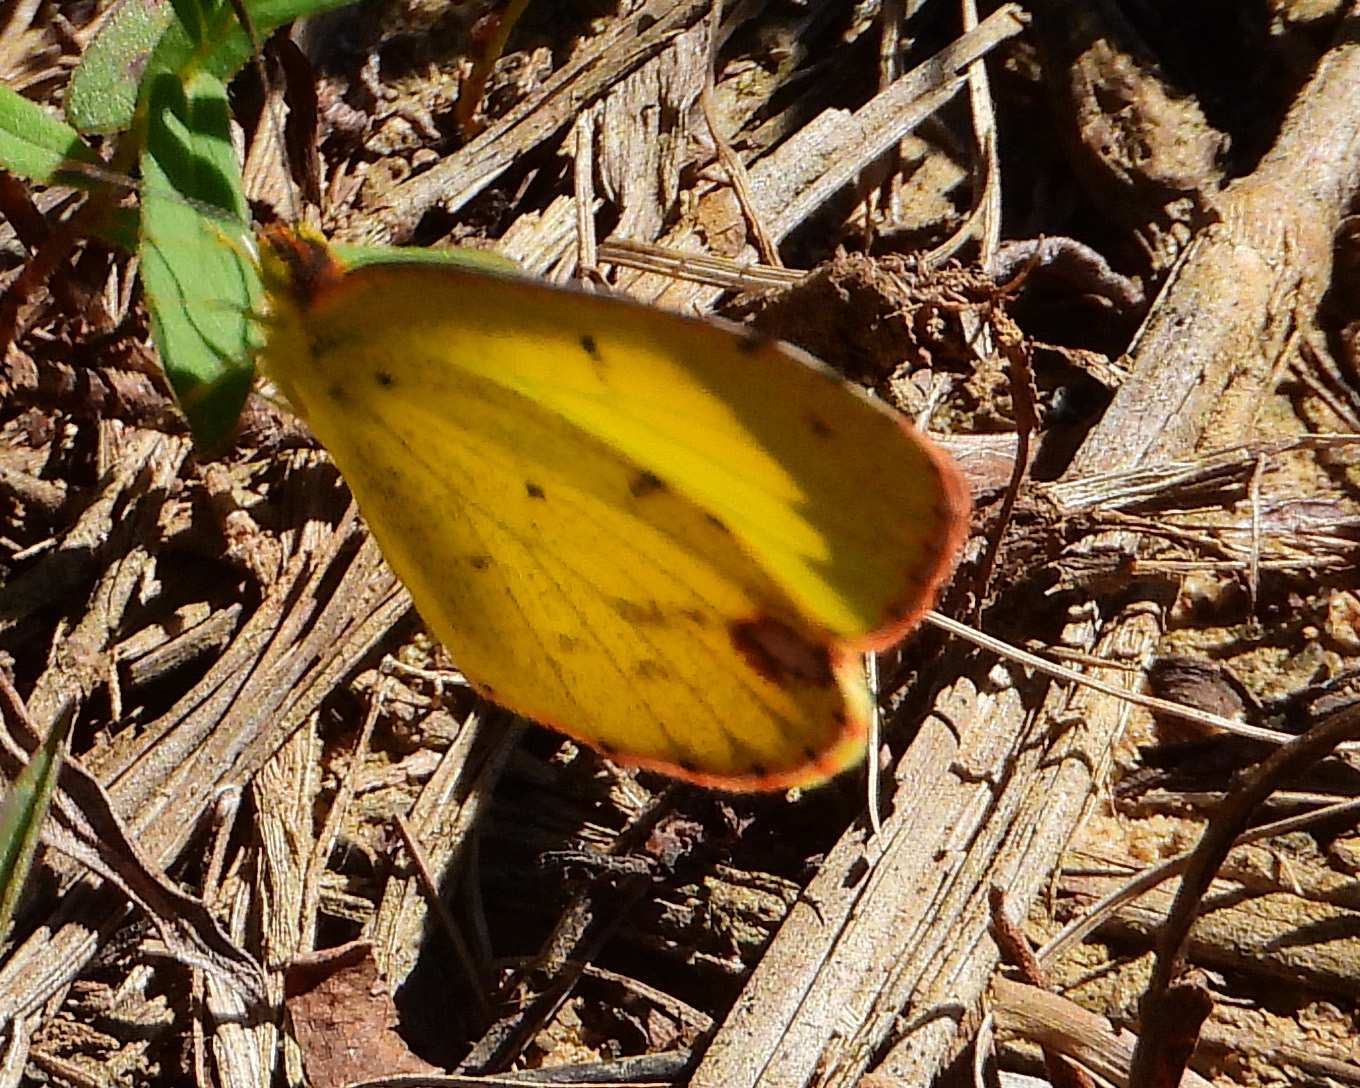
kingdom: Animalia
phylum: Arthropoda
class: Insecta
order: Lepidoptera
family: Pieridae
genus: Pyrisitia
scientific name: Pyrisitia lisa
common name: Little yellow
